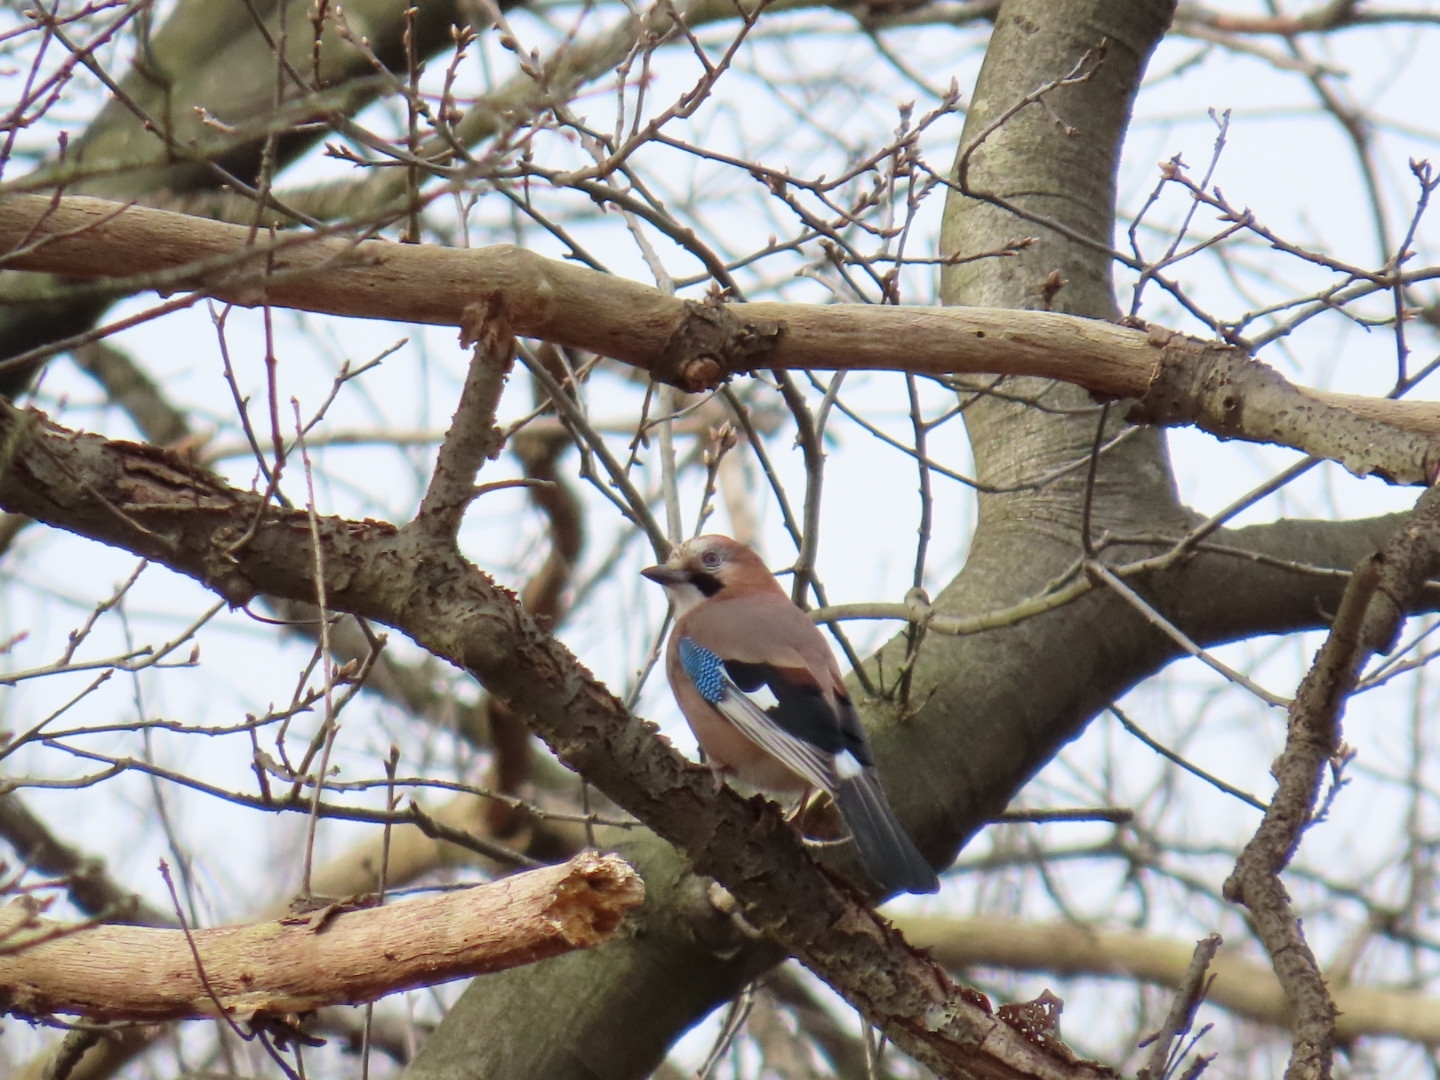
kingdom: Animalia
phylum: Chordata
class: Aves
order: Passeriformes
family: Corvidae
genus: Garrulus
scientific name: Garrulus glandarius
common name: Eurasian jay
